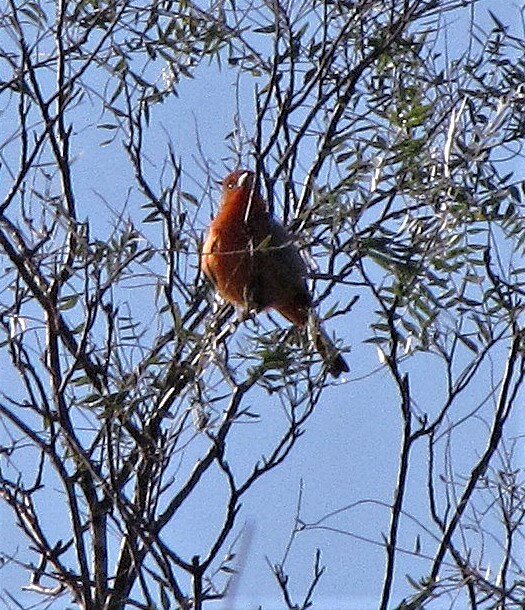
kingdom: Animalia
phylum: Chordata
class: Aves
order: Passeriformes
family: Cardinalidae
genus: Piranga
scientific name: Piranga flava
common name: Red tanager
